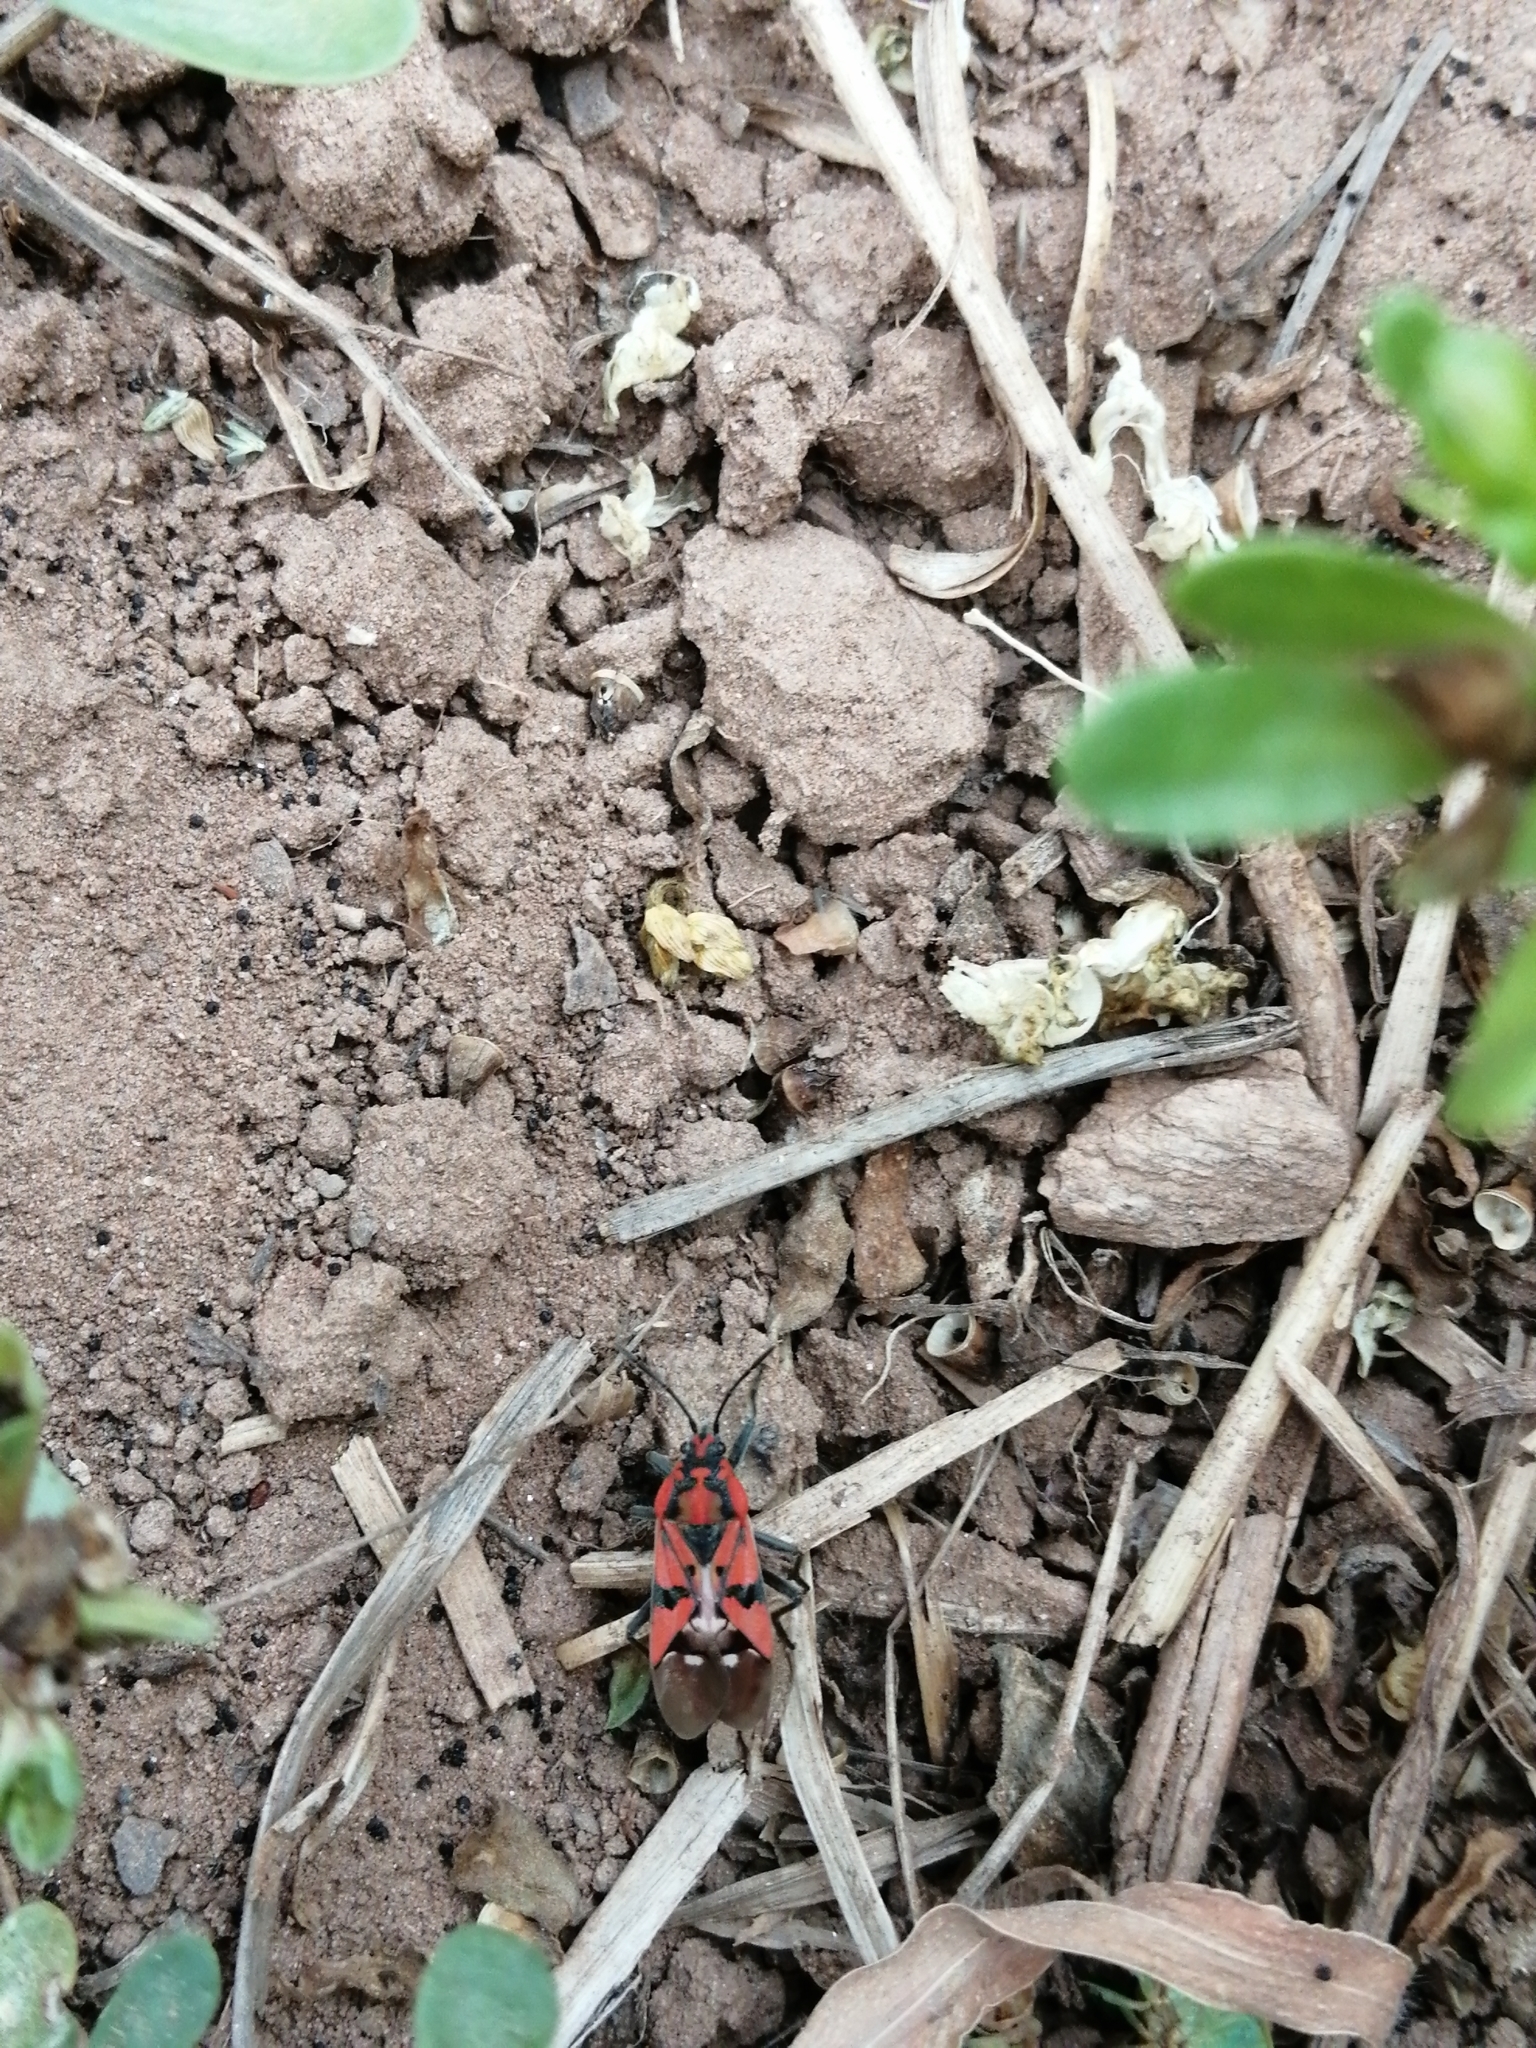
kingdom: Animalia
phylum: Arthropoda
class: Insecta
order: Hemiptera
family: Lygaeidae
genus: Spilostethus
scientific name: Spilostethus pandurus
